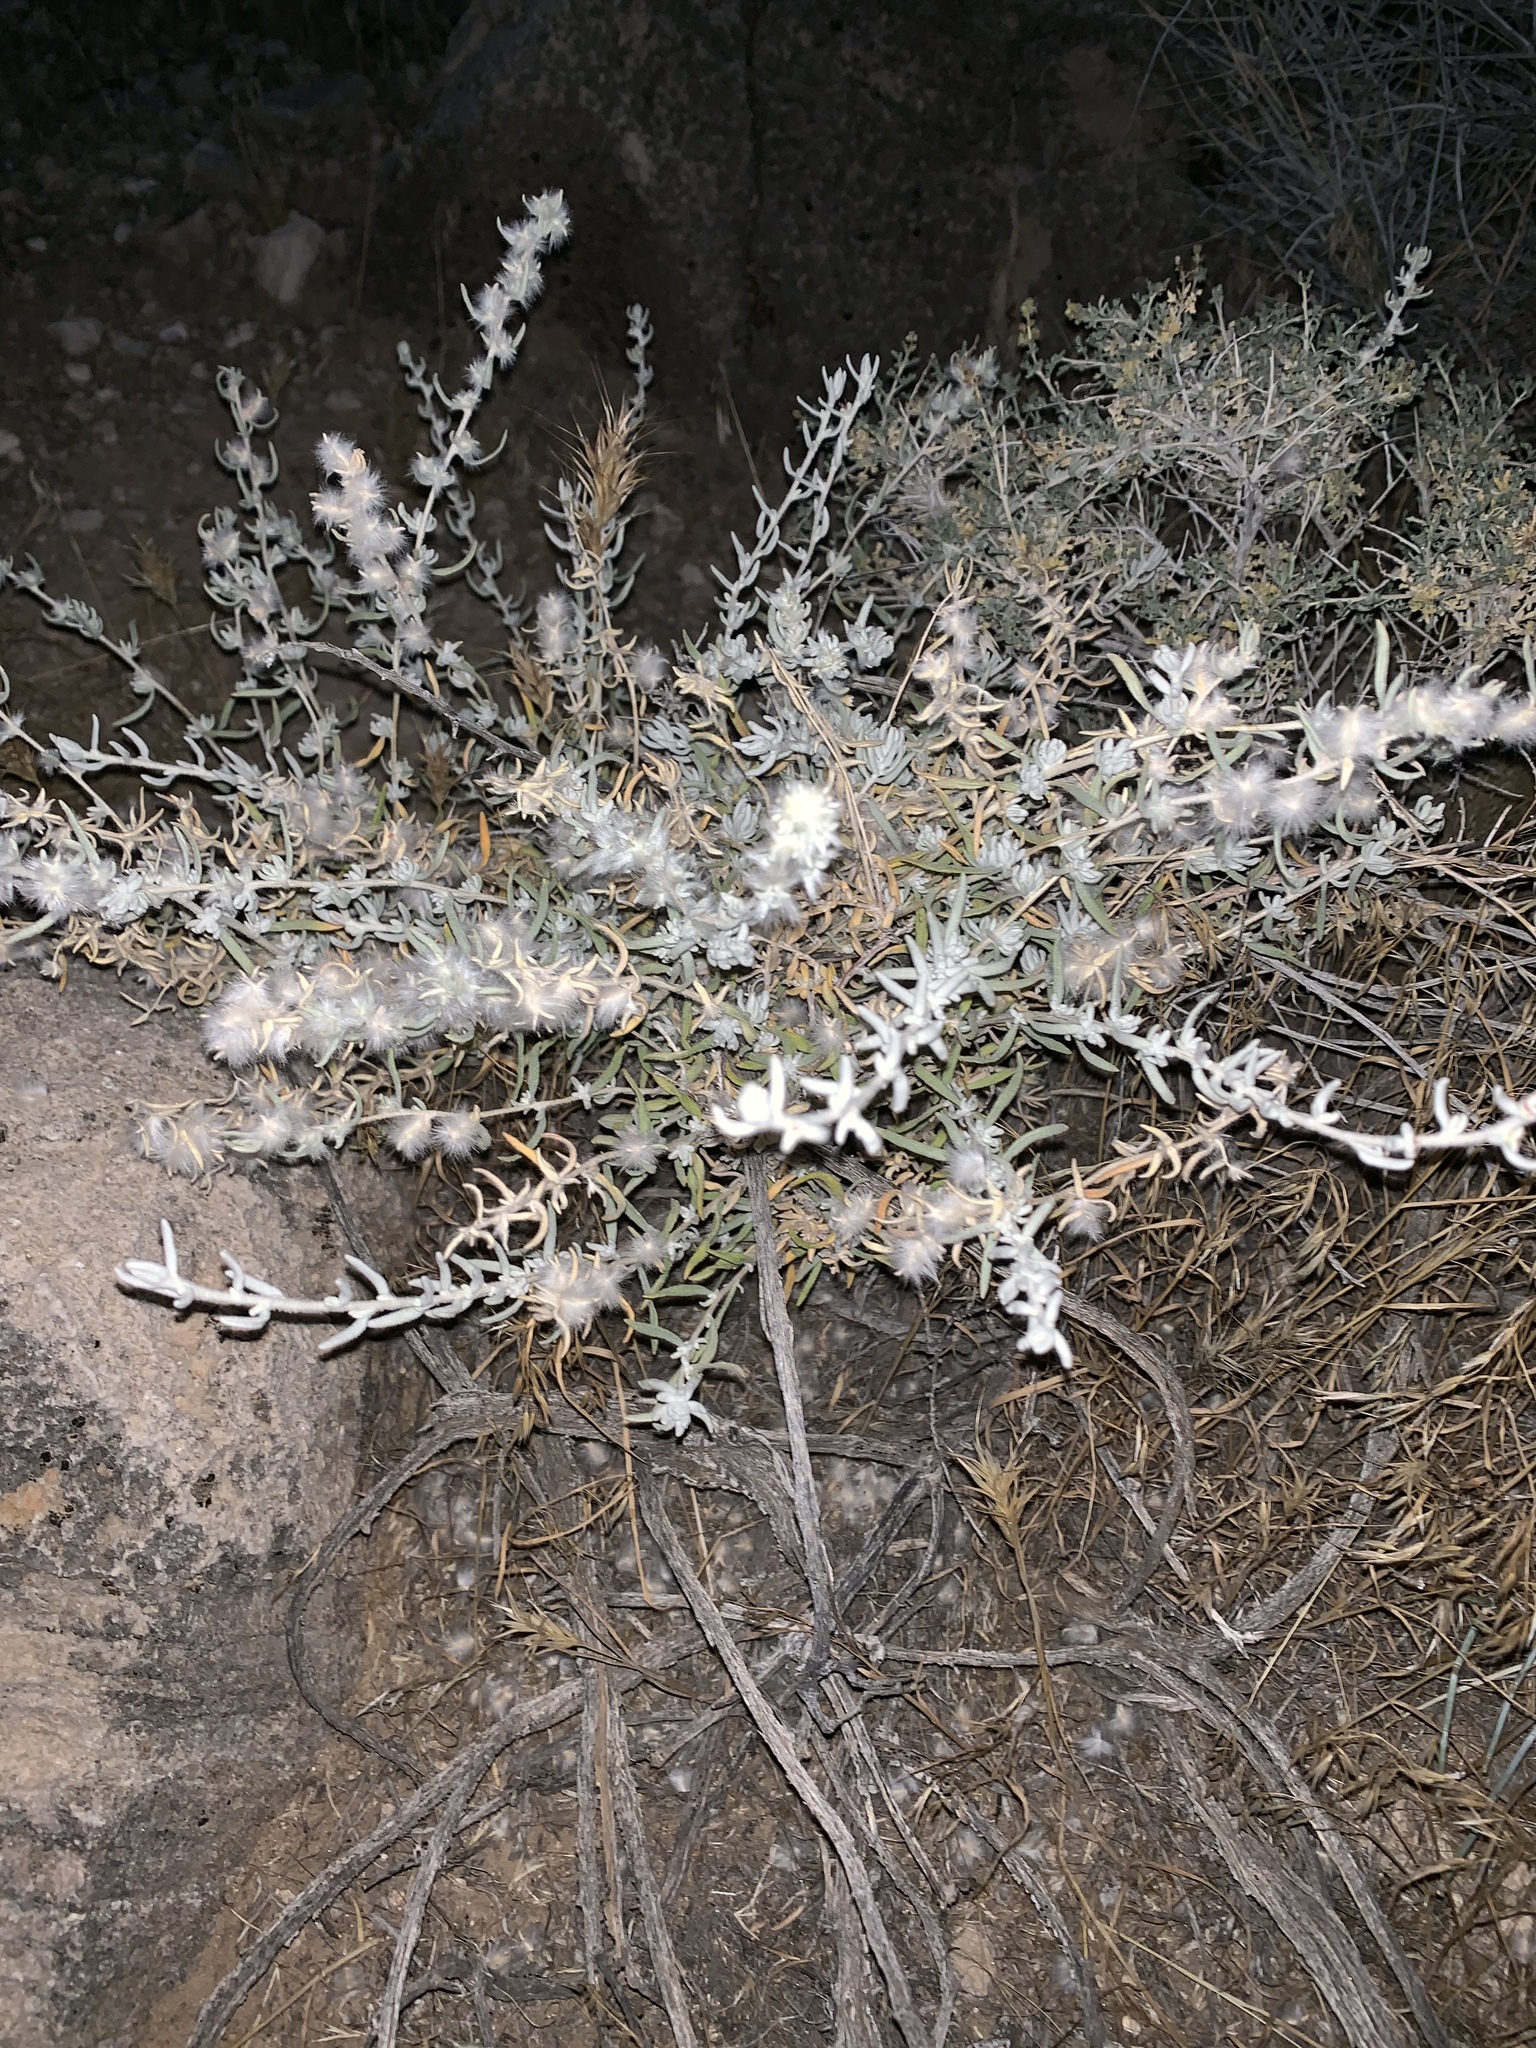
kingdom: Plantae
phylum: Tracheophyta
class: Magnoliopsida
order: Caryophyllales
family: Amaranthaceae
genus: Krascheninnikovia
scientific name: Krascheninnikovia lanata
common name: Winterfat
